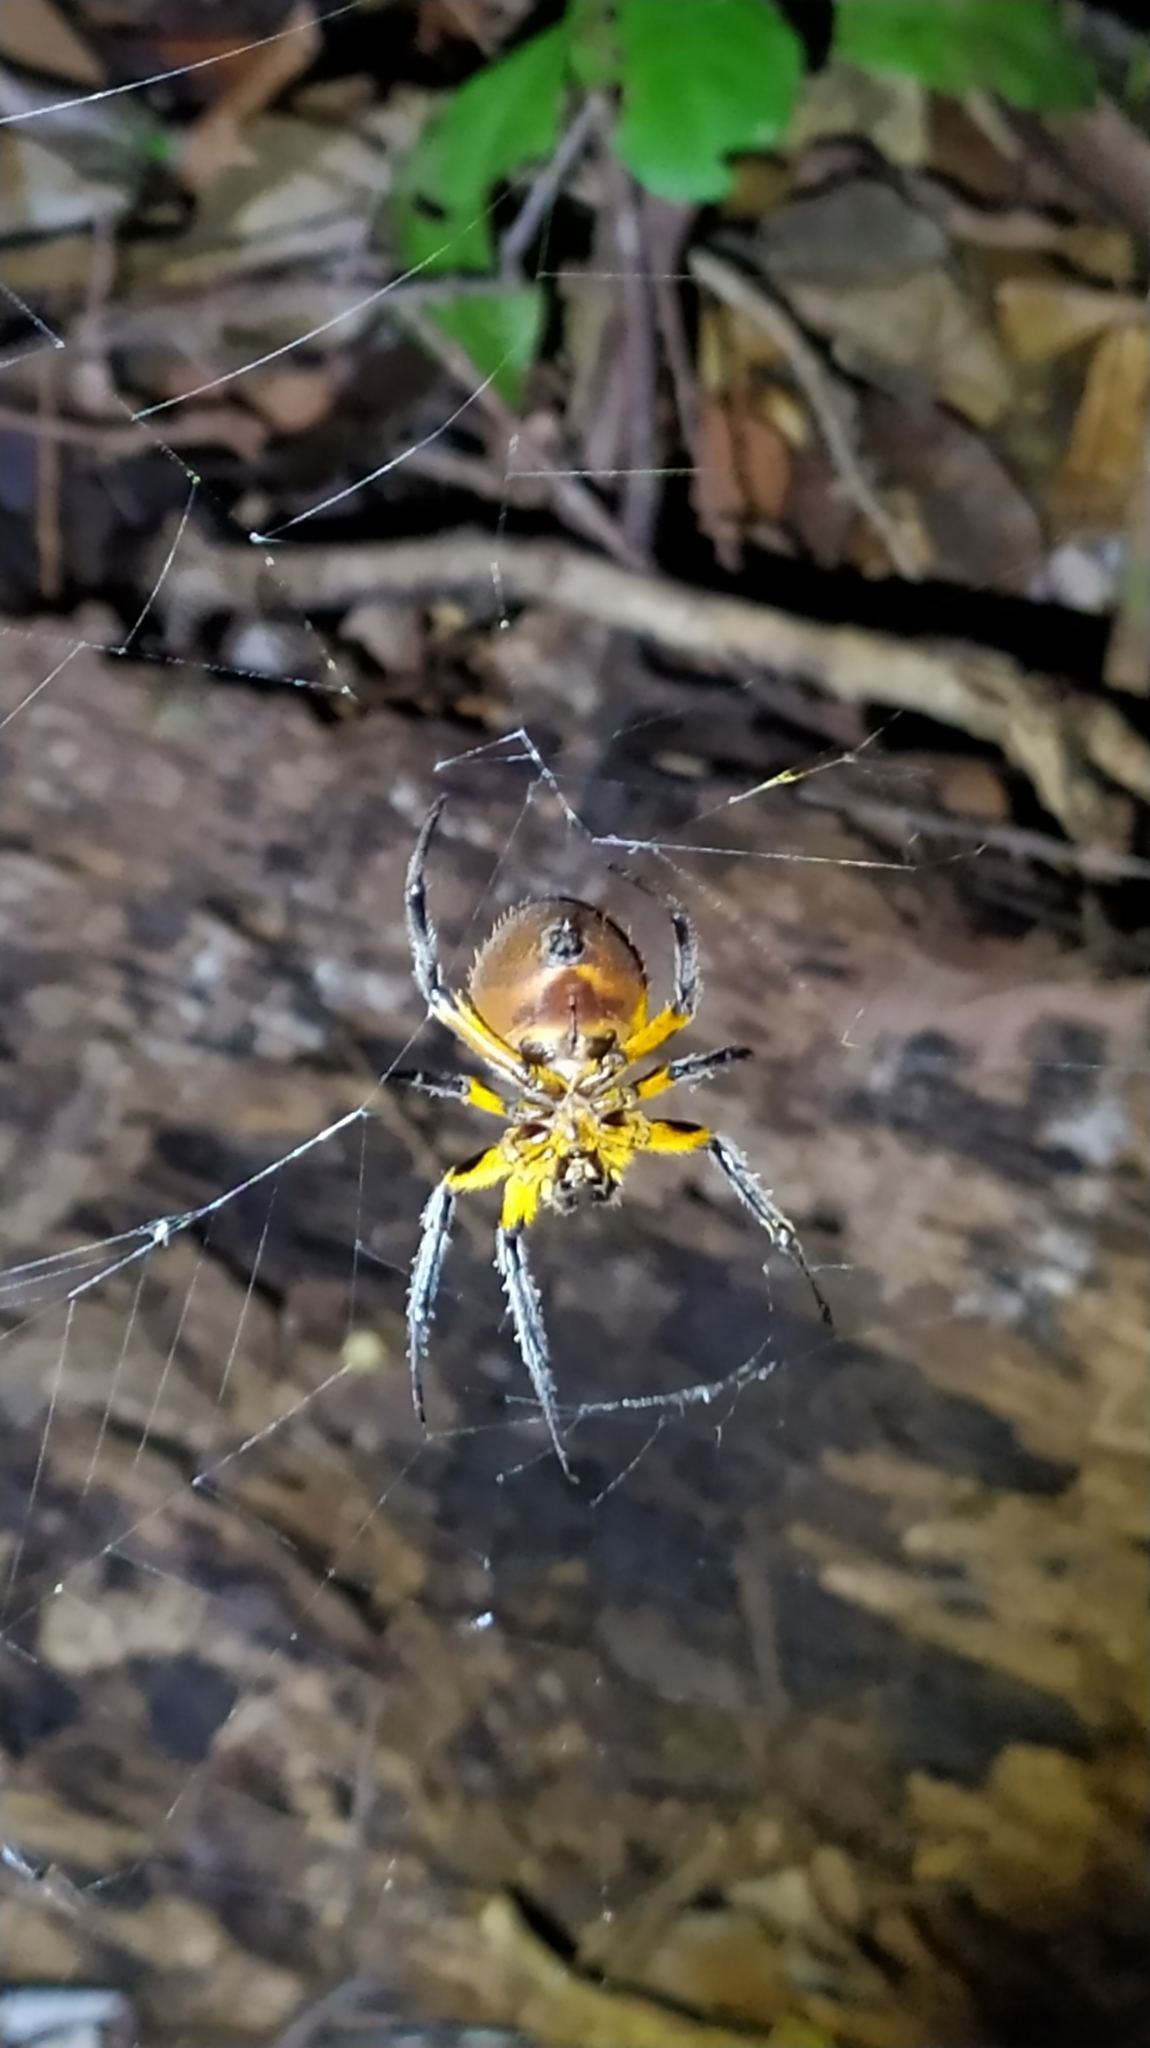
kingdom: Animalia
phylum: Arthropoda
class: Arachnida
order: Araneae
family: Araneidae
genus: Eriophora
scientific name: Eriophora fuliginea
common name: Orb weavers
